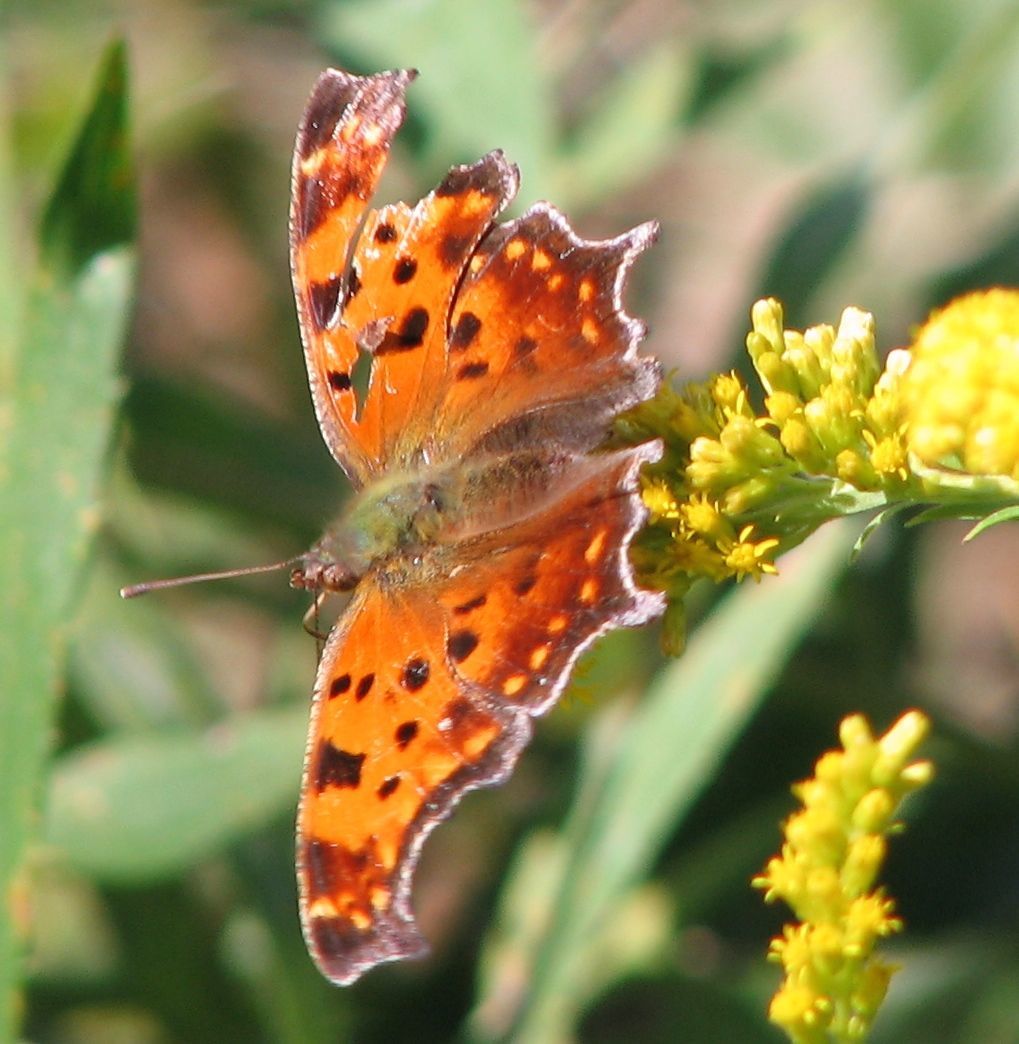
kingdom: Animalia
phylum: Arthropoda
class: Insecta
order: Lepidoptera
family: Nymphalidae
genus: Polygonia
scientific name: Polygonia comma
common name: Eastern comma
